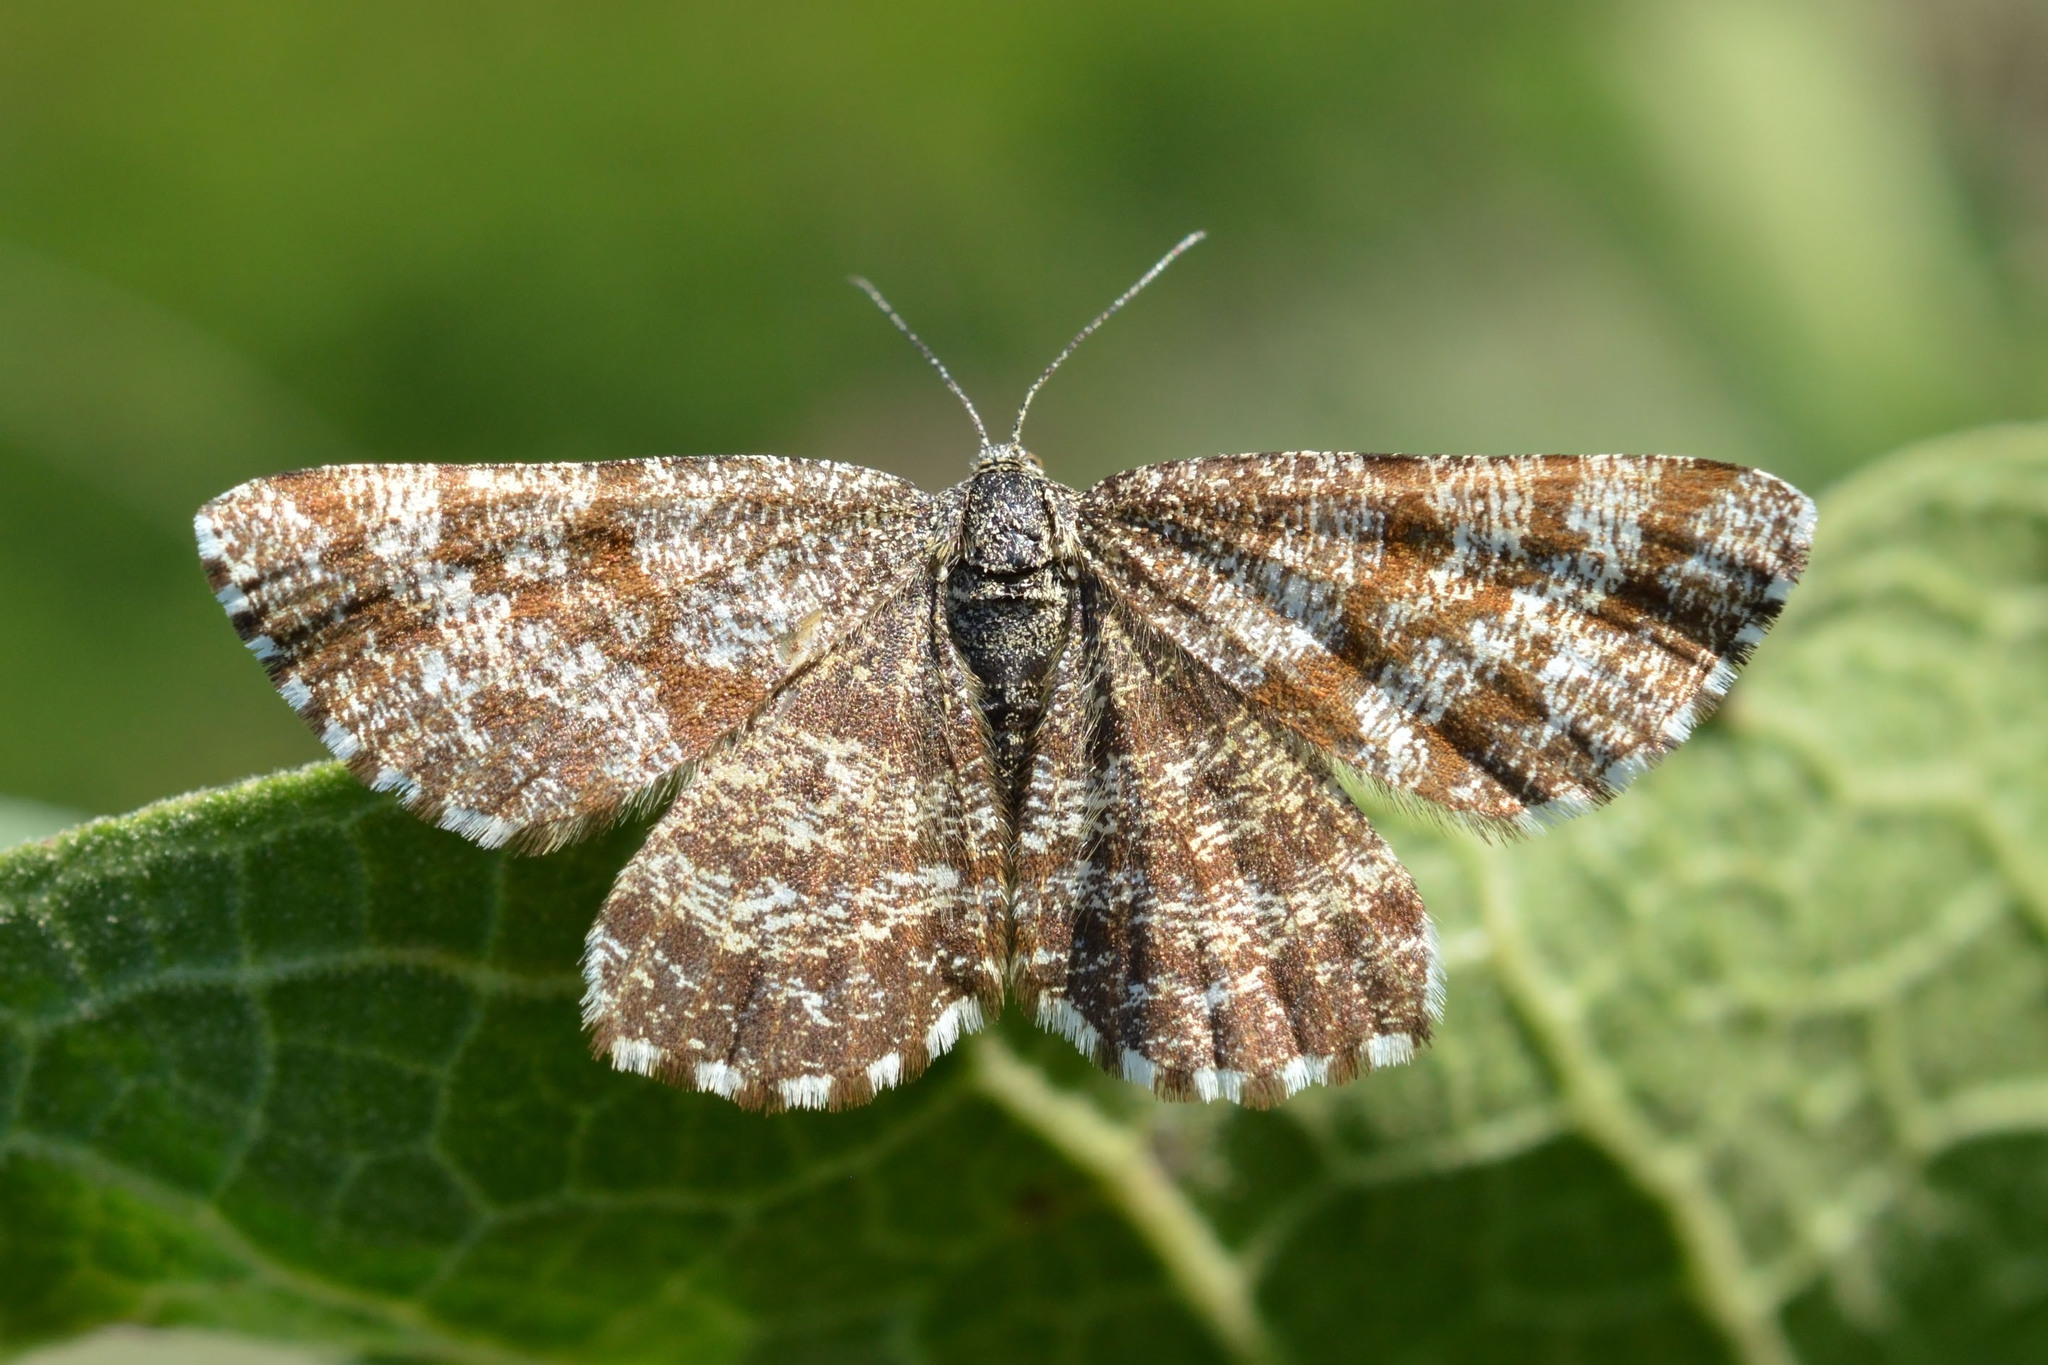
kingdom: Animalia
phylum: Arthropoda
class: Insecta
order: Lepidoptera
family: Geometridae
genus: Ematurga
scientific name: Ematurga atomaria
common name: Common heath
